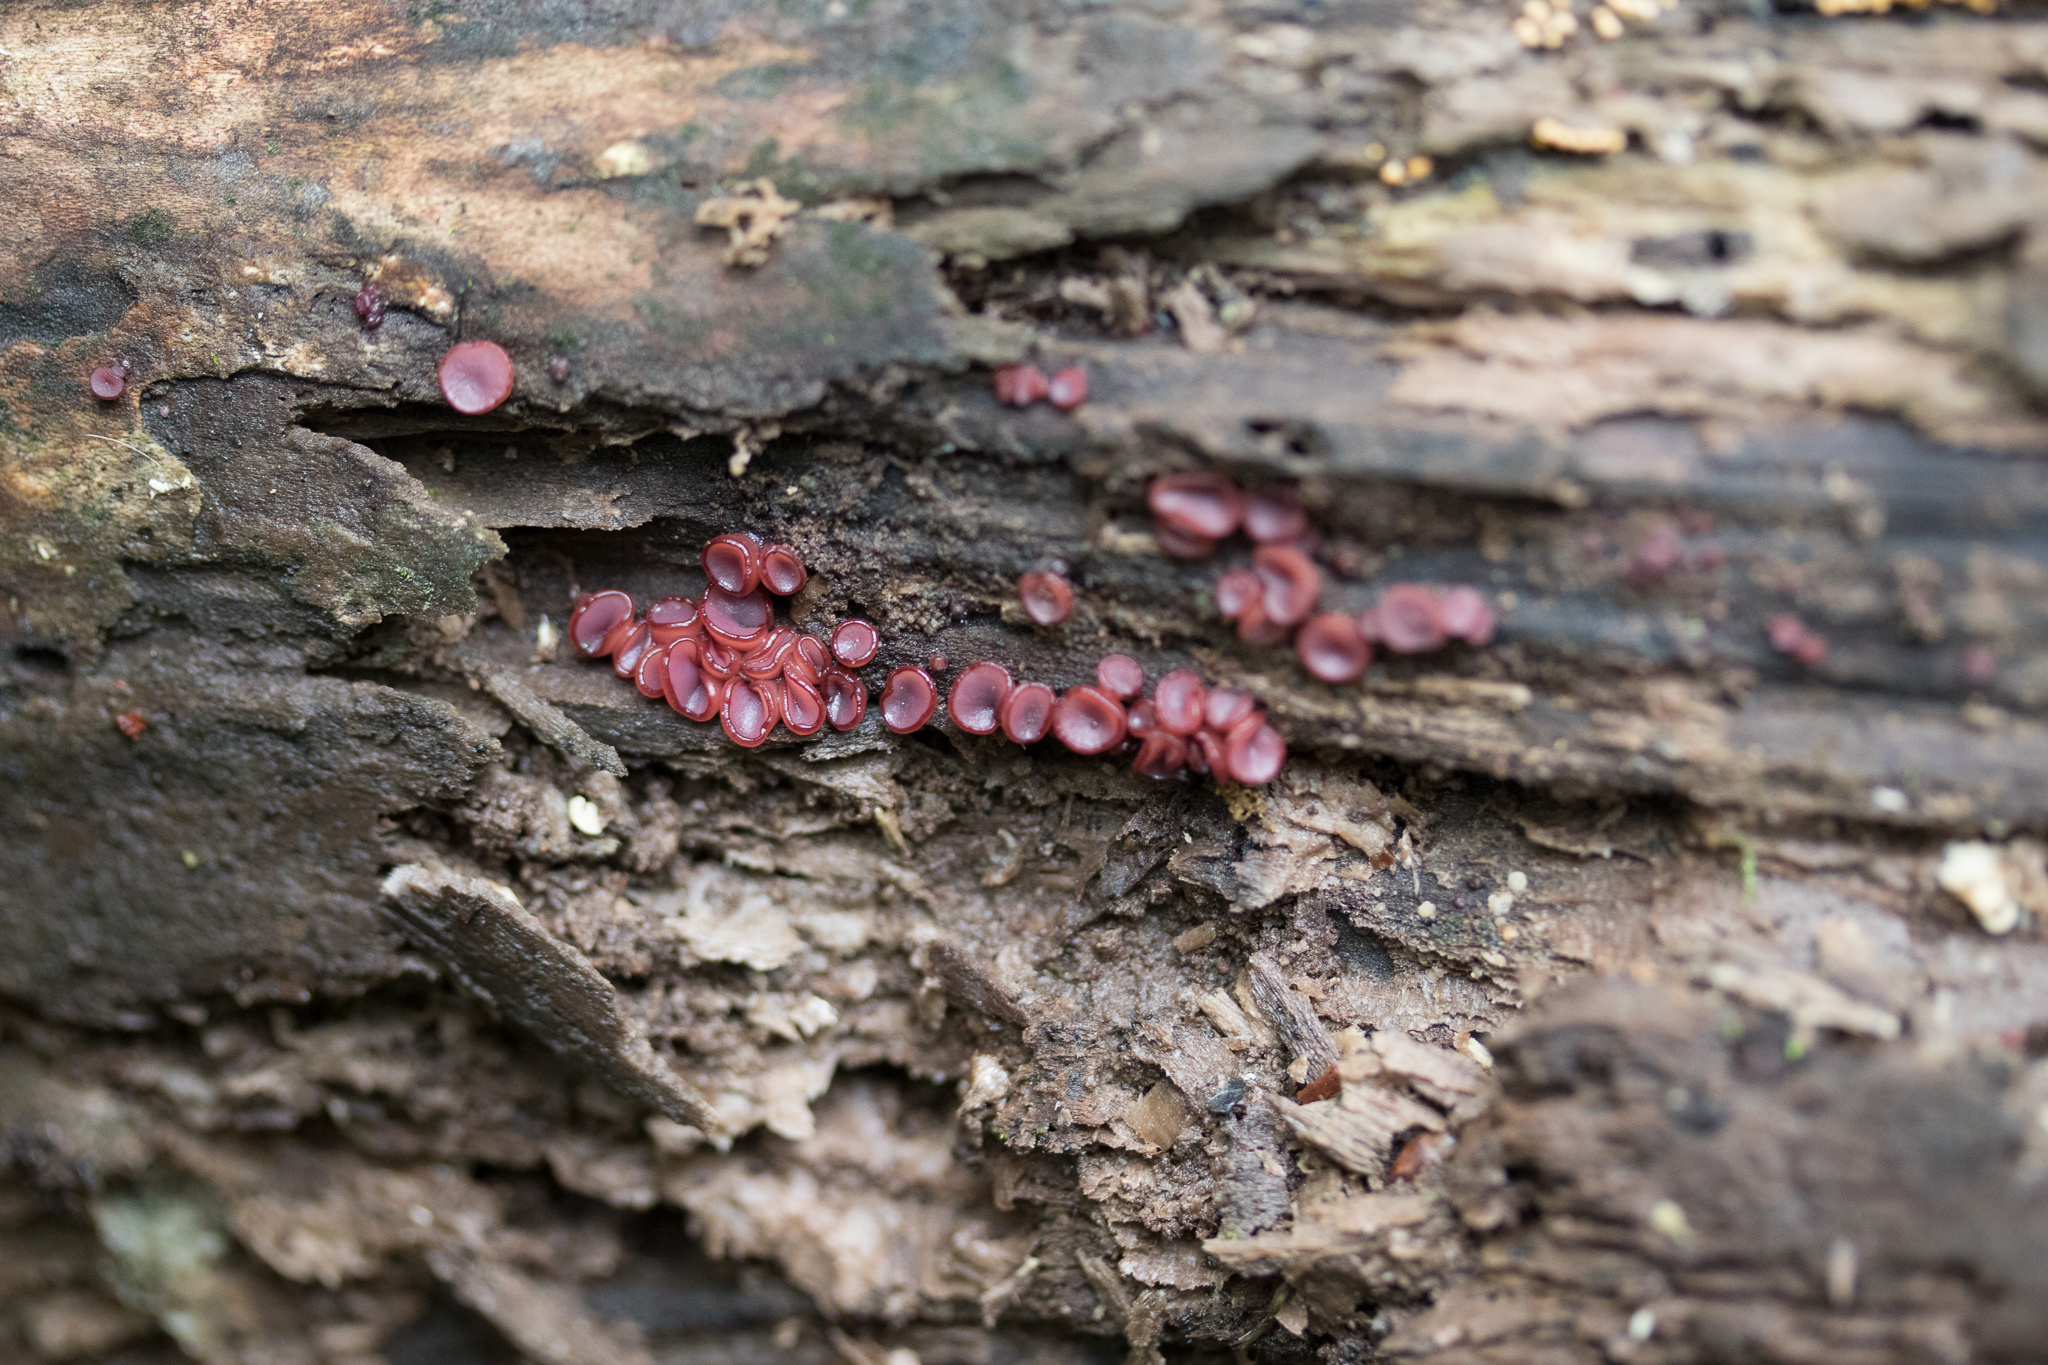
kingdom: Fungi
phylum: Ascomycota
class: Leotiomycetes
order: Helotiales
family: Gelatinodiscaceae
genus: Ascocoryne
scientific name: Ascocoryne sarcoides
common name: Purple jellydisc
